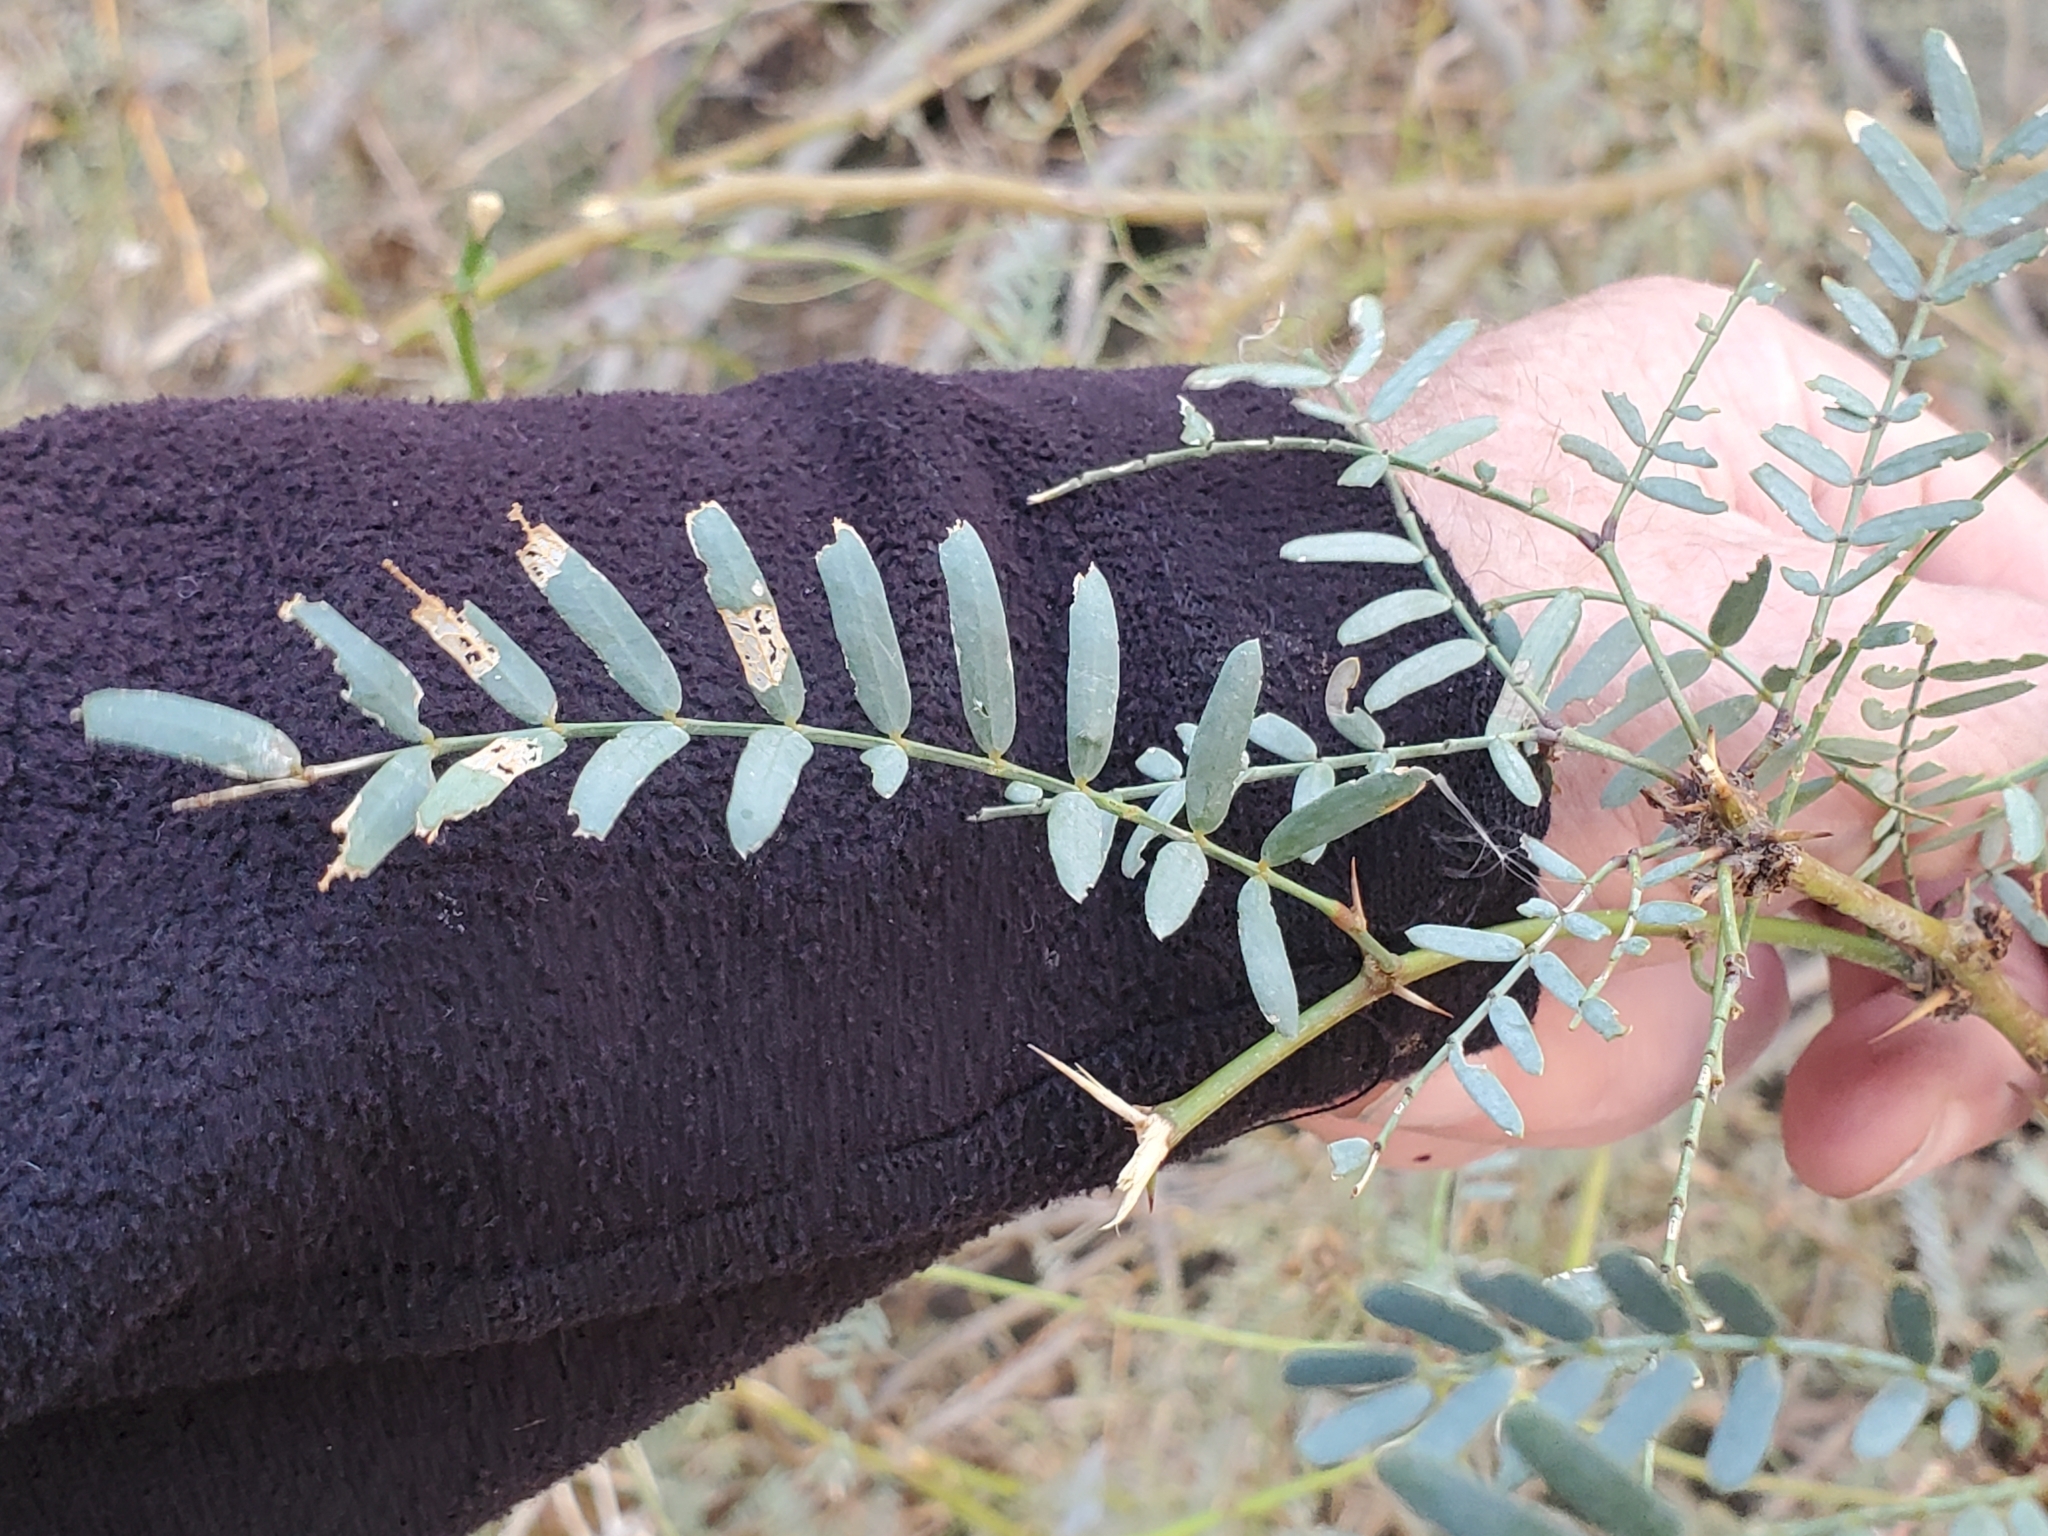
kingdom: Plantae
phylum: Tracheophyta
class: Magnoliopsida
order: Fabales
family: Fabaceae
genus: Prosopis
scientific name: Prosopis pubescens
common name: Screw-bean
